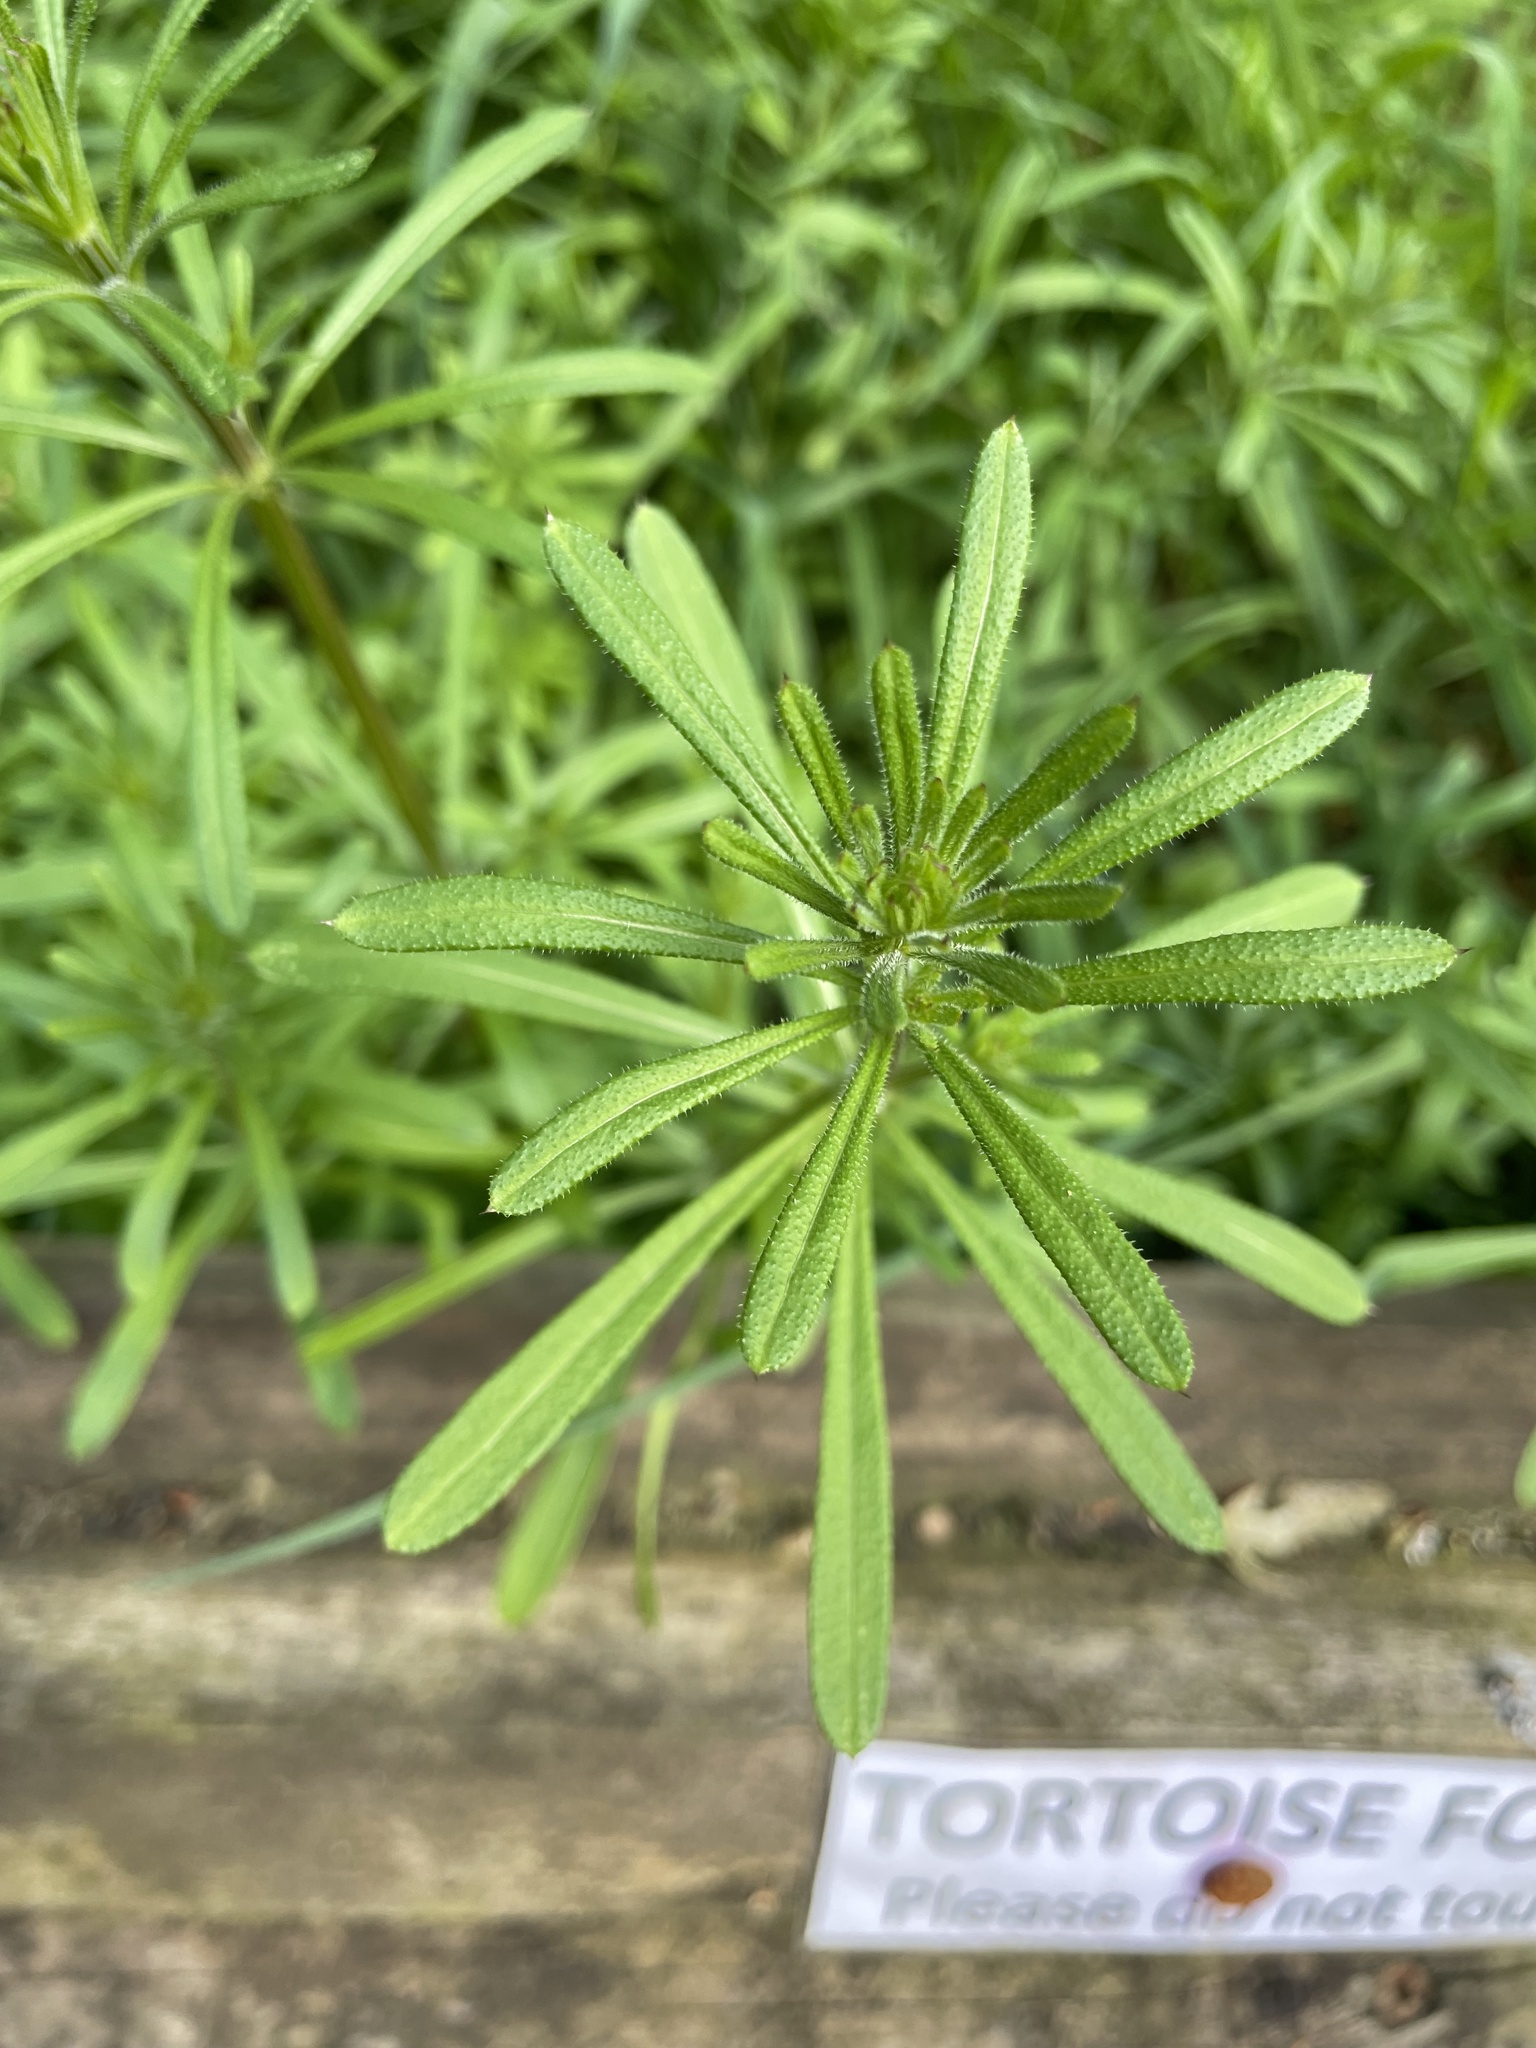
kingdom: Plantae
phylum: Tracheophyta
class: Magnoliopsida
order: Gentianales
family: Rubiaceae
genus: Galium
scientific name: Galium aparine
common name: Cleavers
